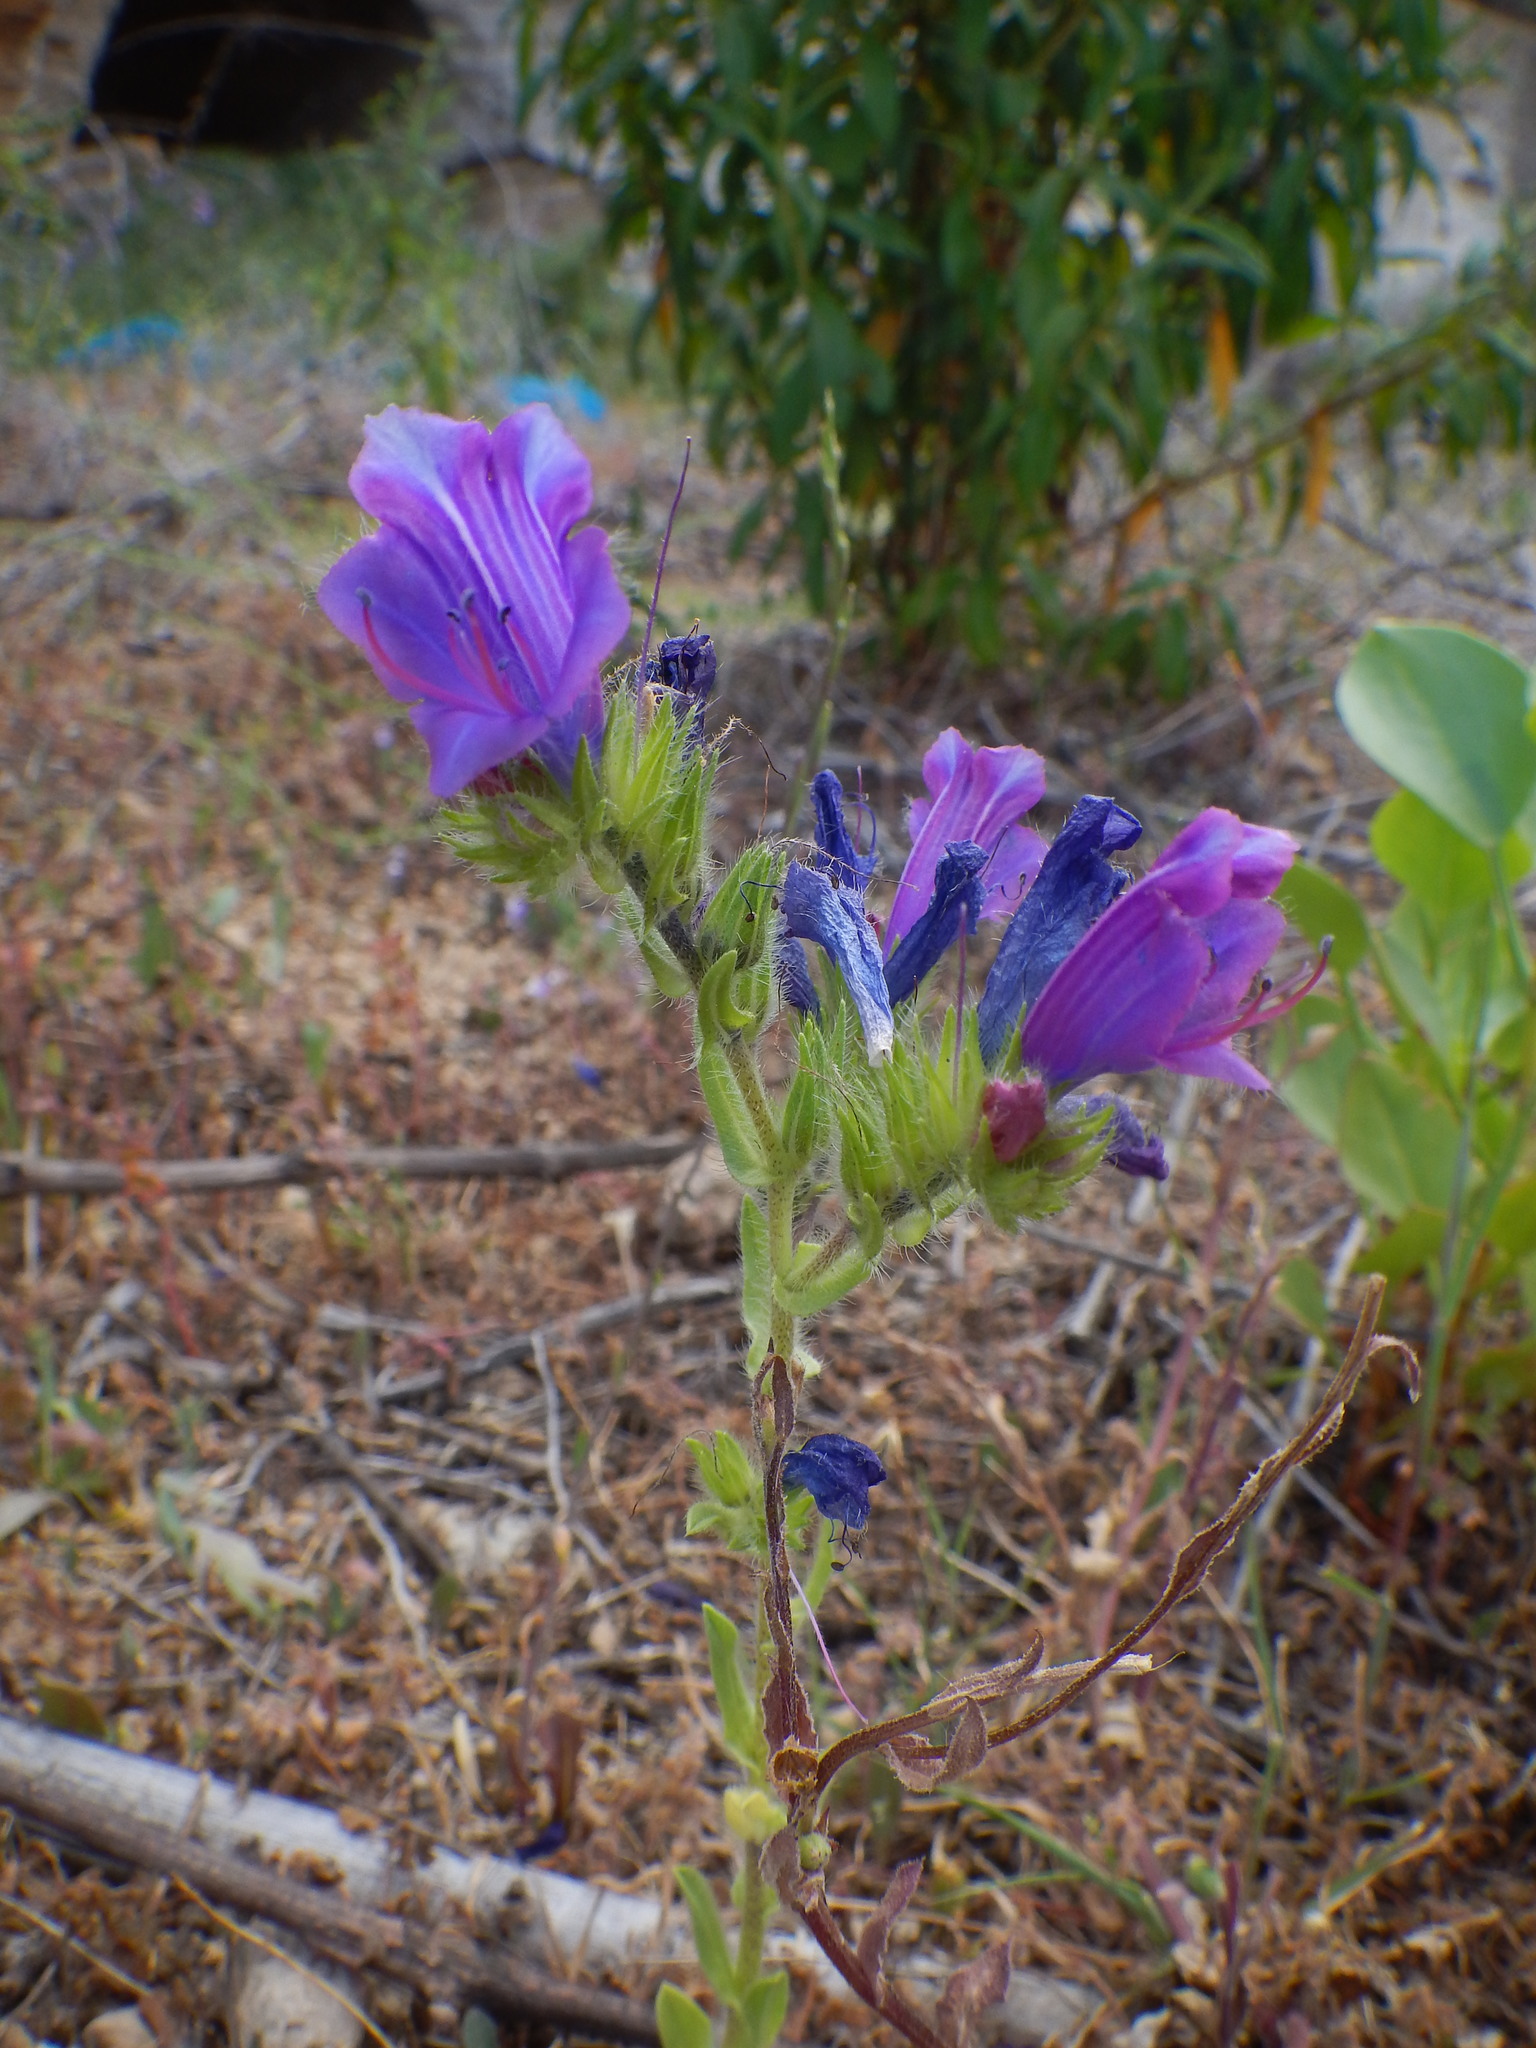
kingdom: Plantae
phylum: Tracheophyta
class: Magnoliopsida
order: Boraginales
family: Boraginaceae
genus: Echium
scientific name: Echium plantagineum
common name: Purple viper's-bugloss
